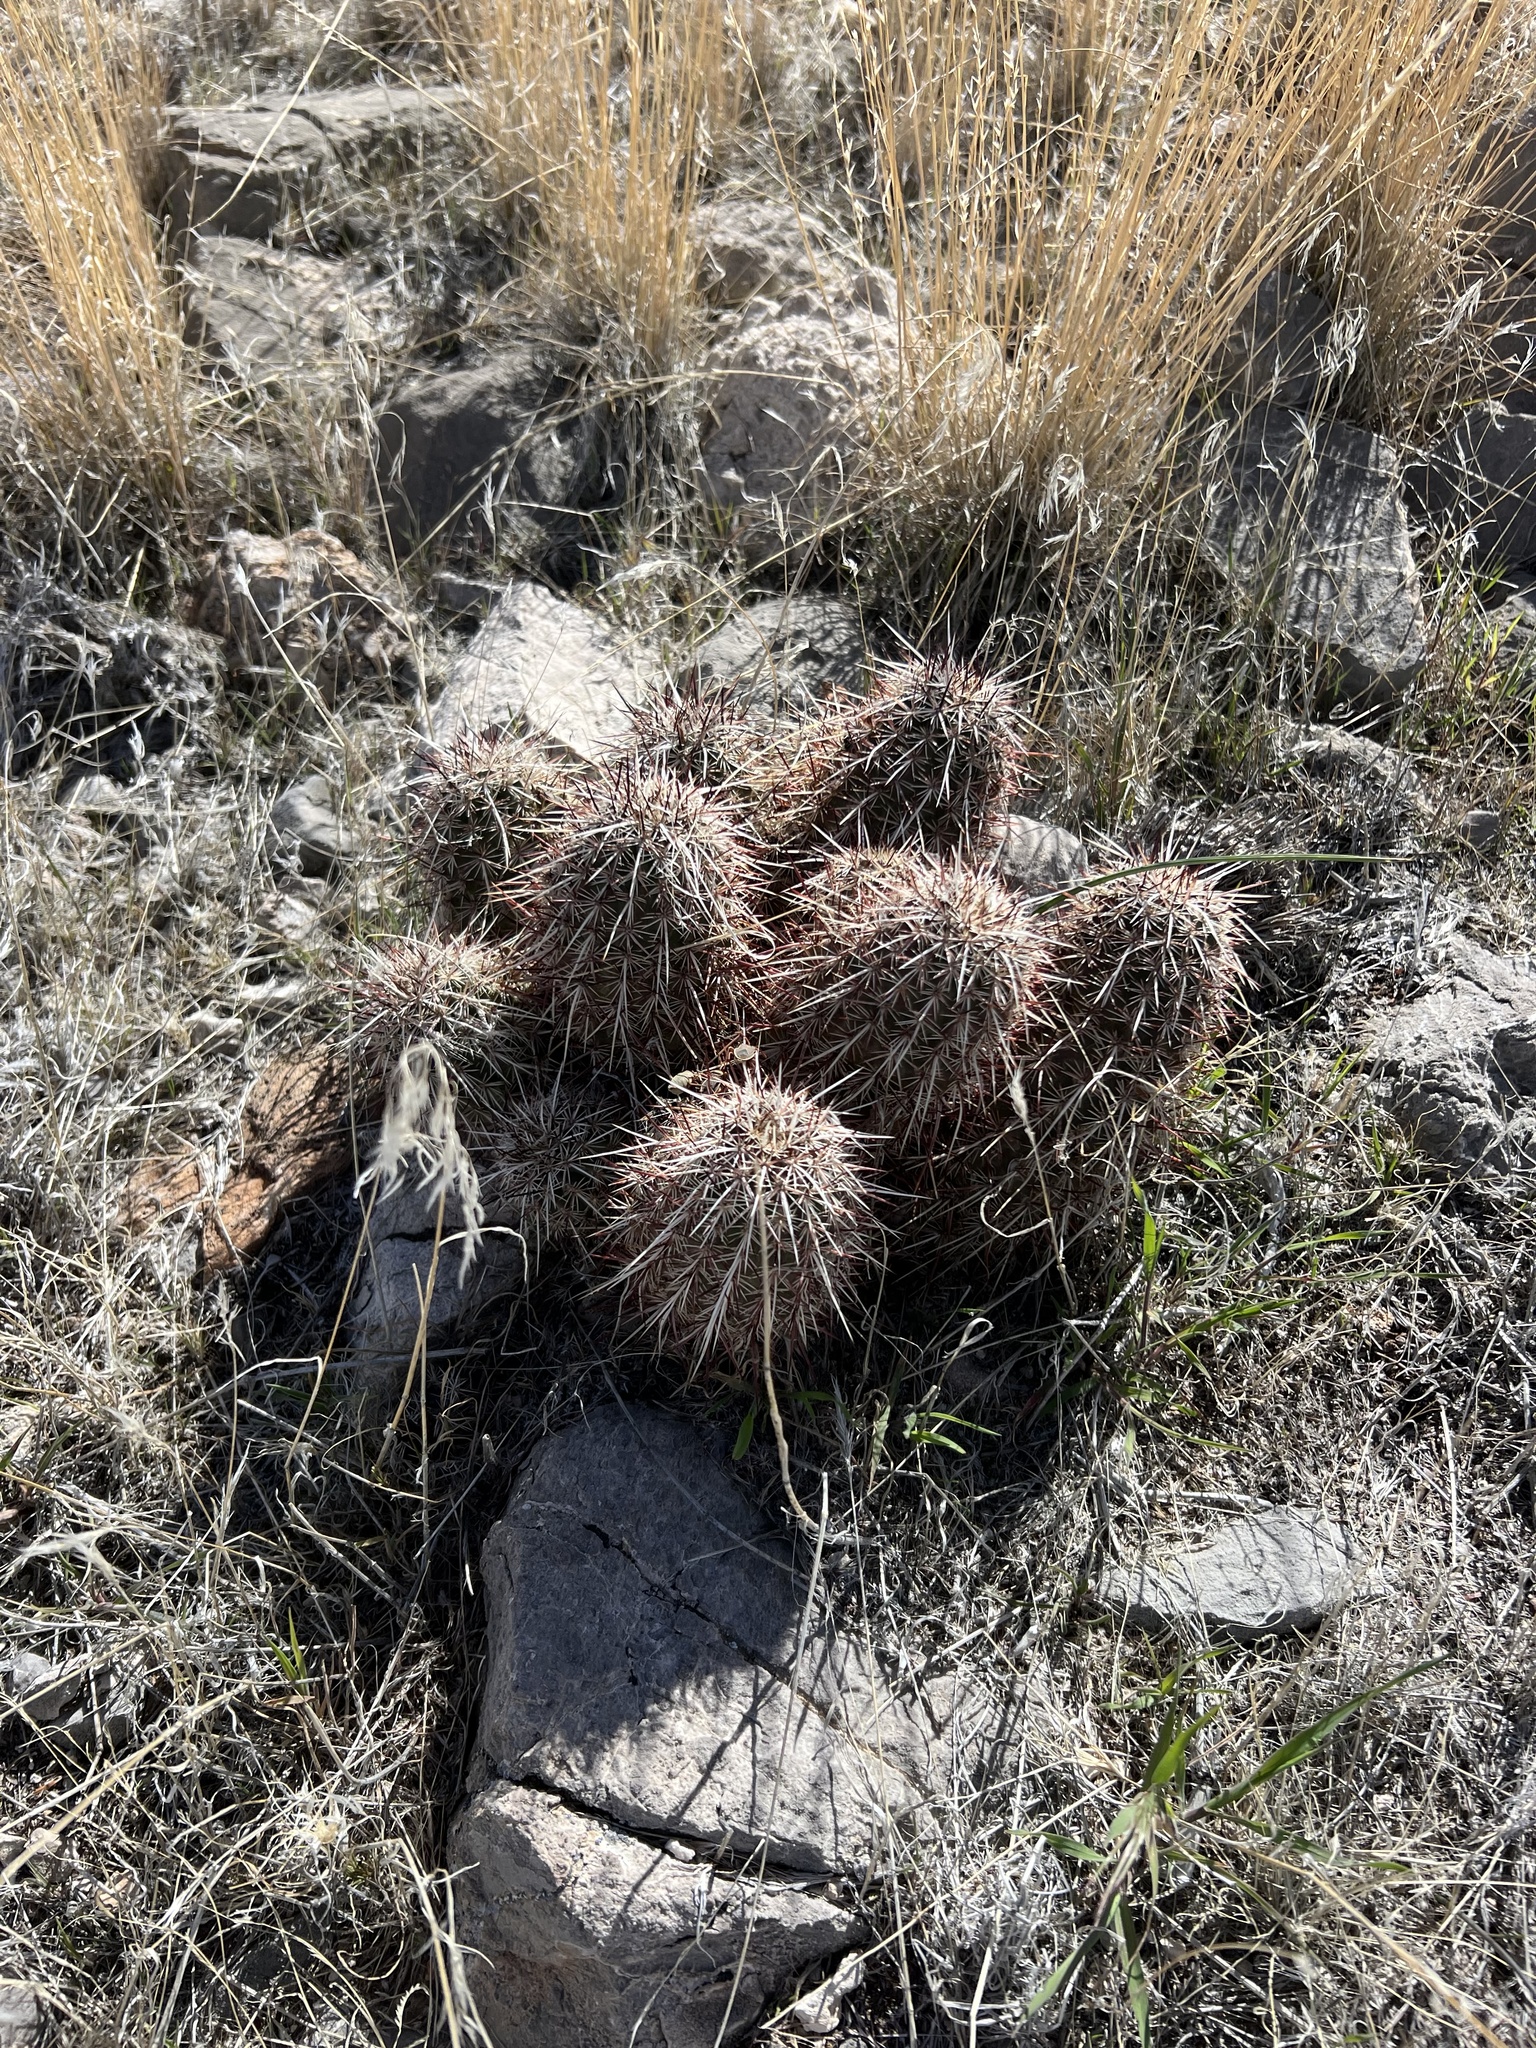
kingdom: Plantae
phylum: Tracheophyta
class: Magnoliopsida
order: Caryophyllales
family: Cactaceae
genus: Echinocereus
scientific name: Echinocereus engelmannii
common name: Engelmann's hedgehog cactus
